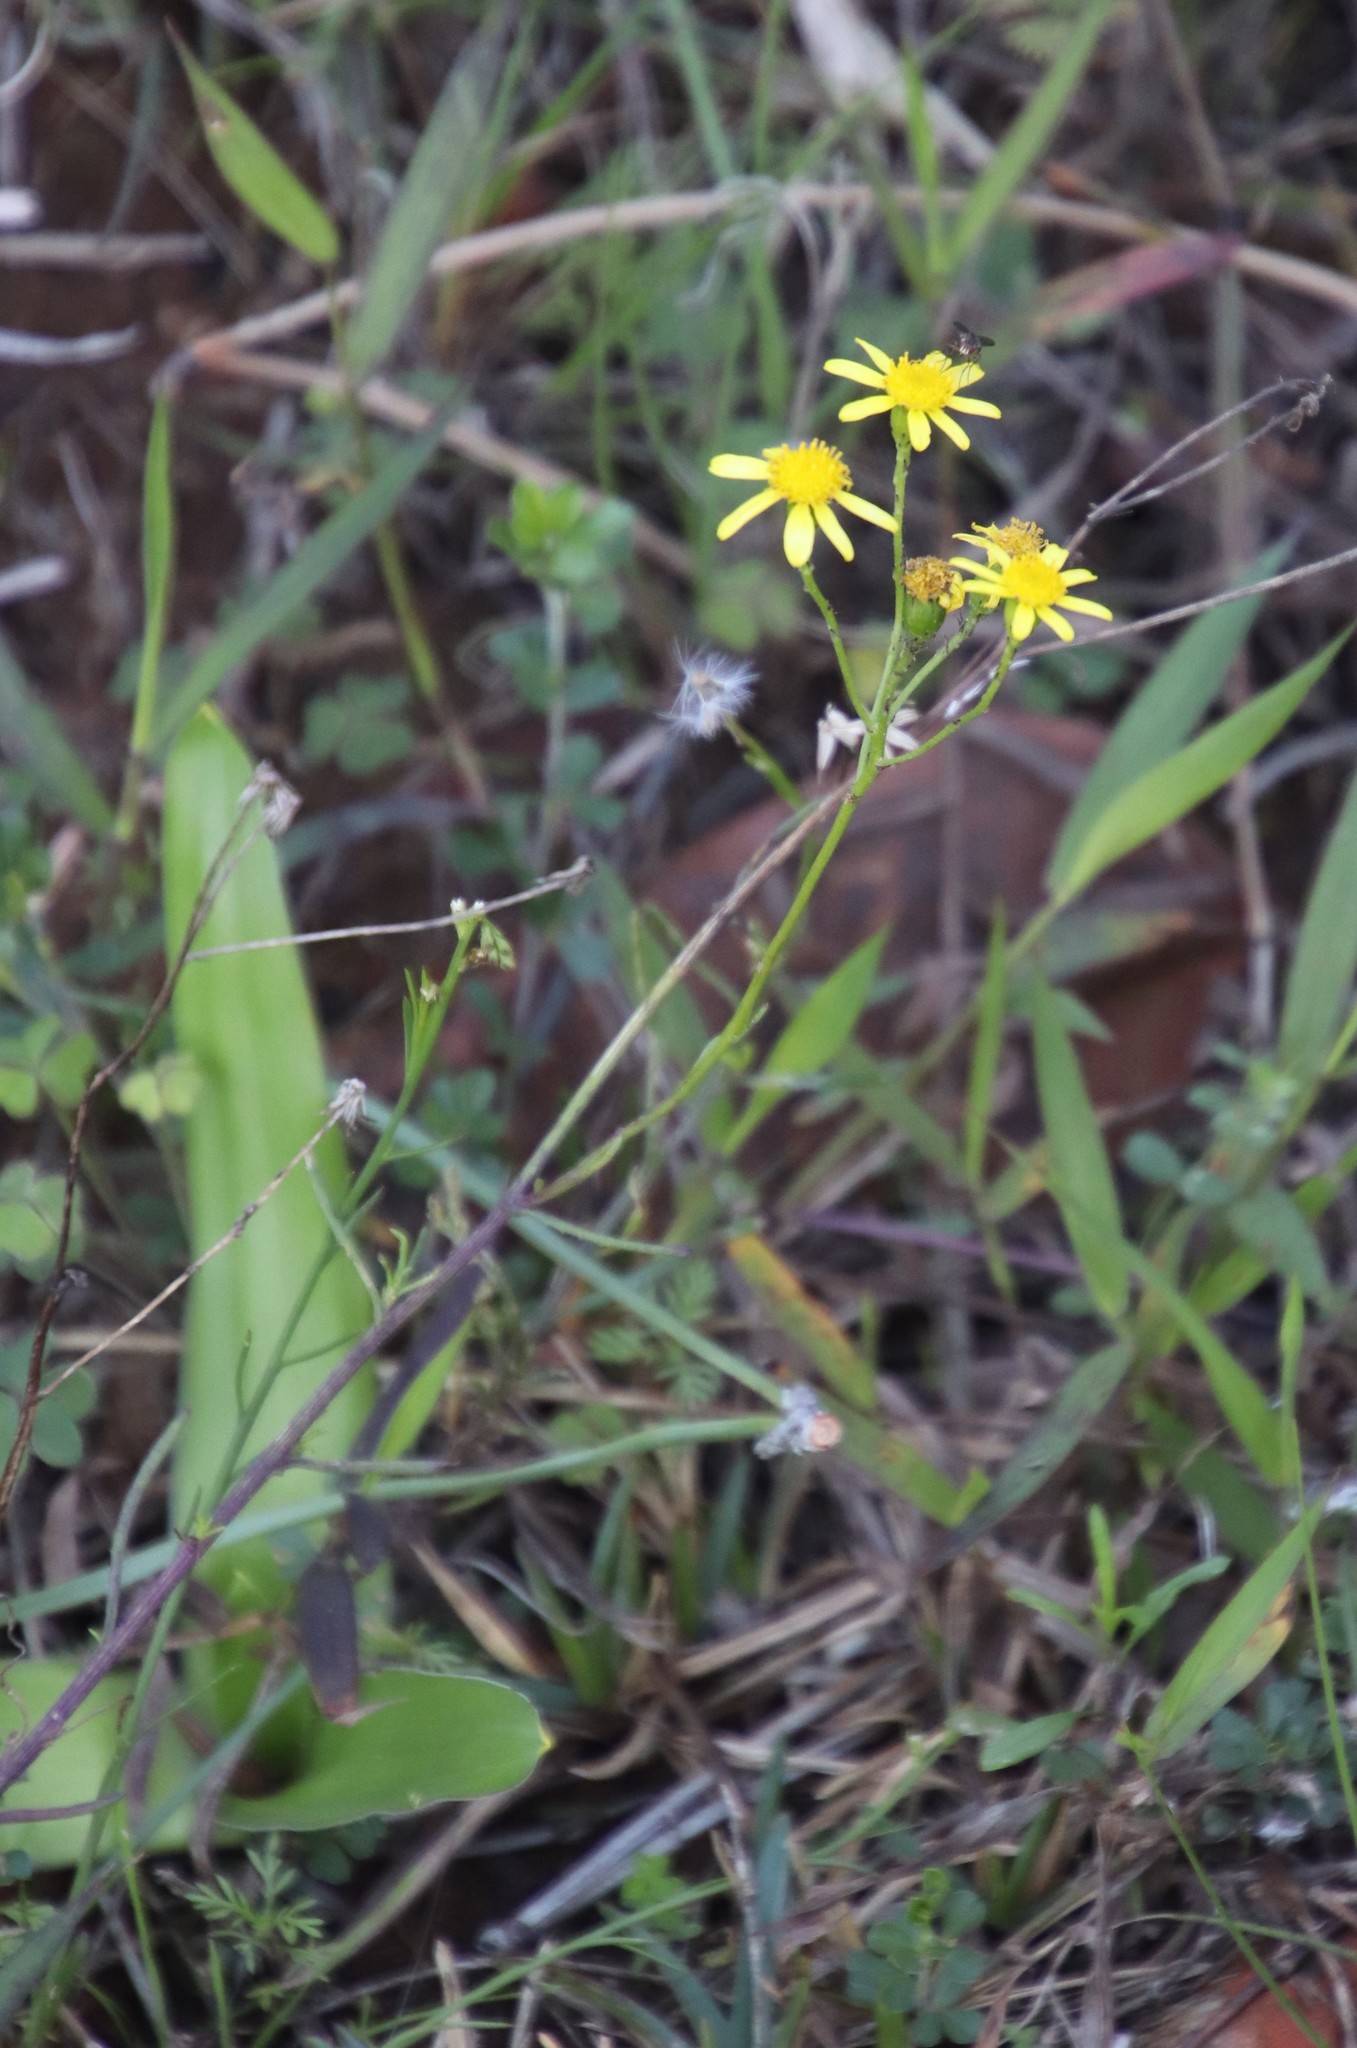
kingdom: Plantae
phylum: Tracheophyta
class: Magnoliopsida
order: Asterales
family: Asteraceae
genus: Senecio
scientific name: Senecio burchellii
